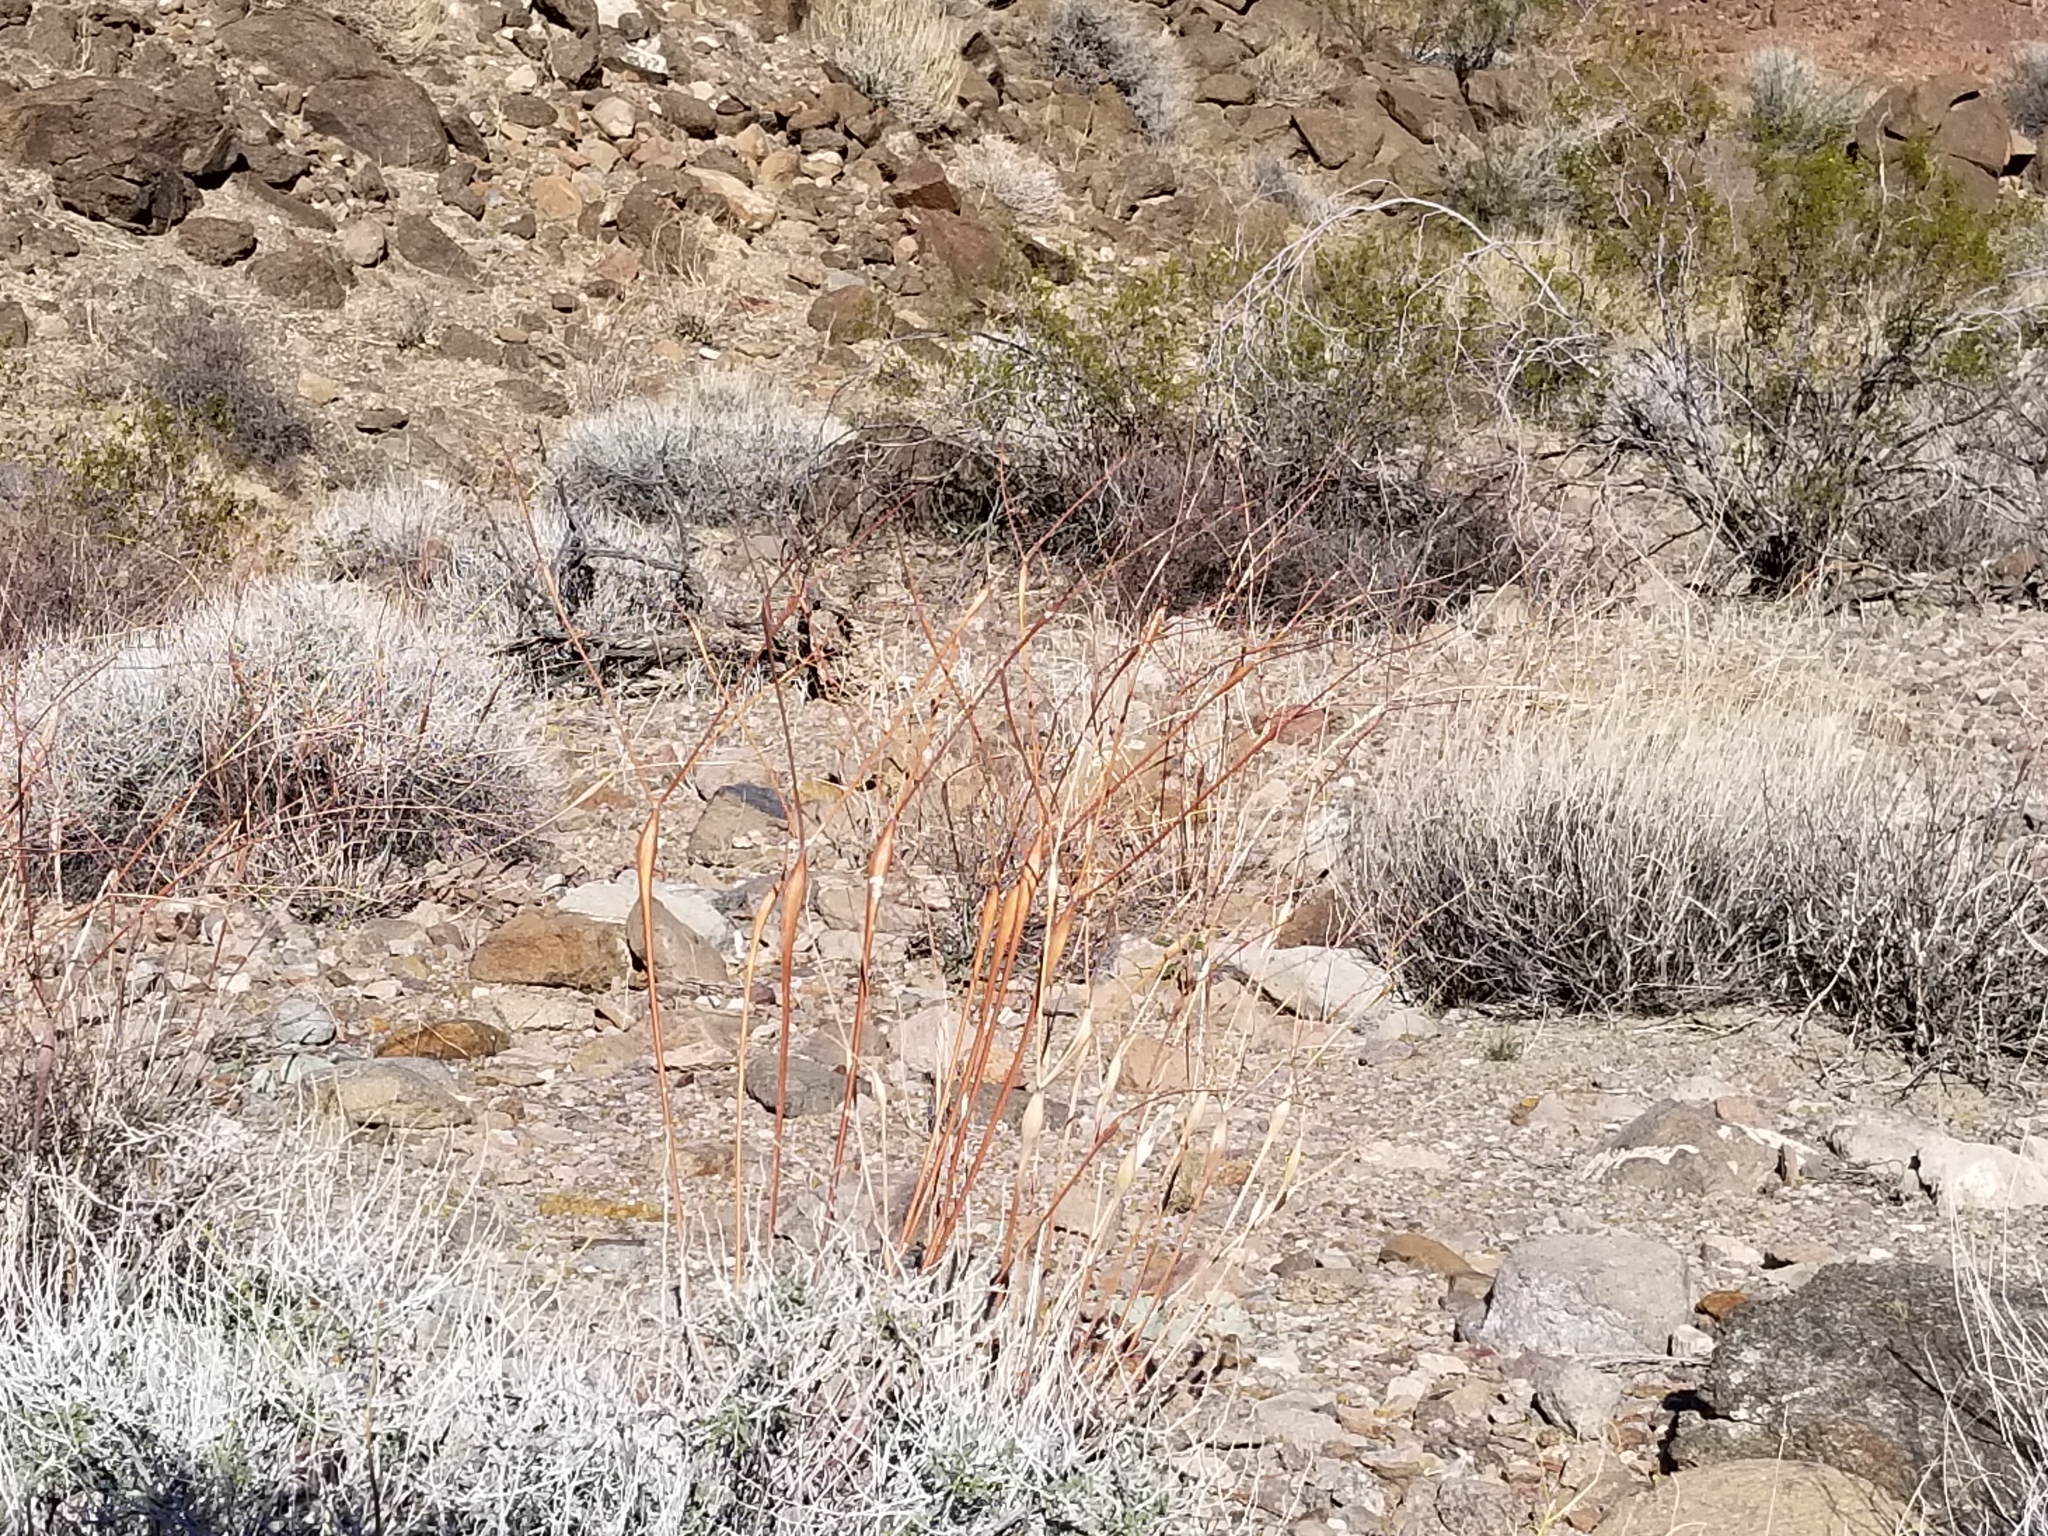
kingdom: Plantae
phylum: Tracheophyta
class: Magnoliopsida
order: Caryophyllales
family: Polygonaceae
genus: Eriogonum
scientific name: Eriogonum inflatum
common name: Desert trumpet
